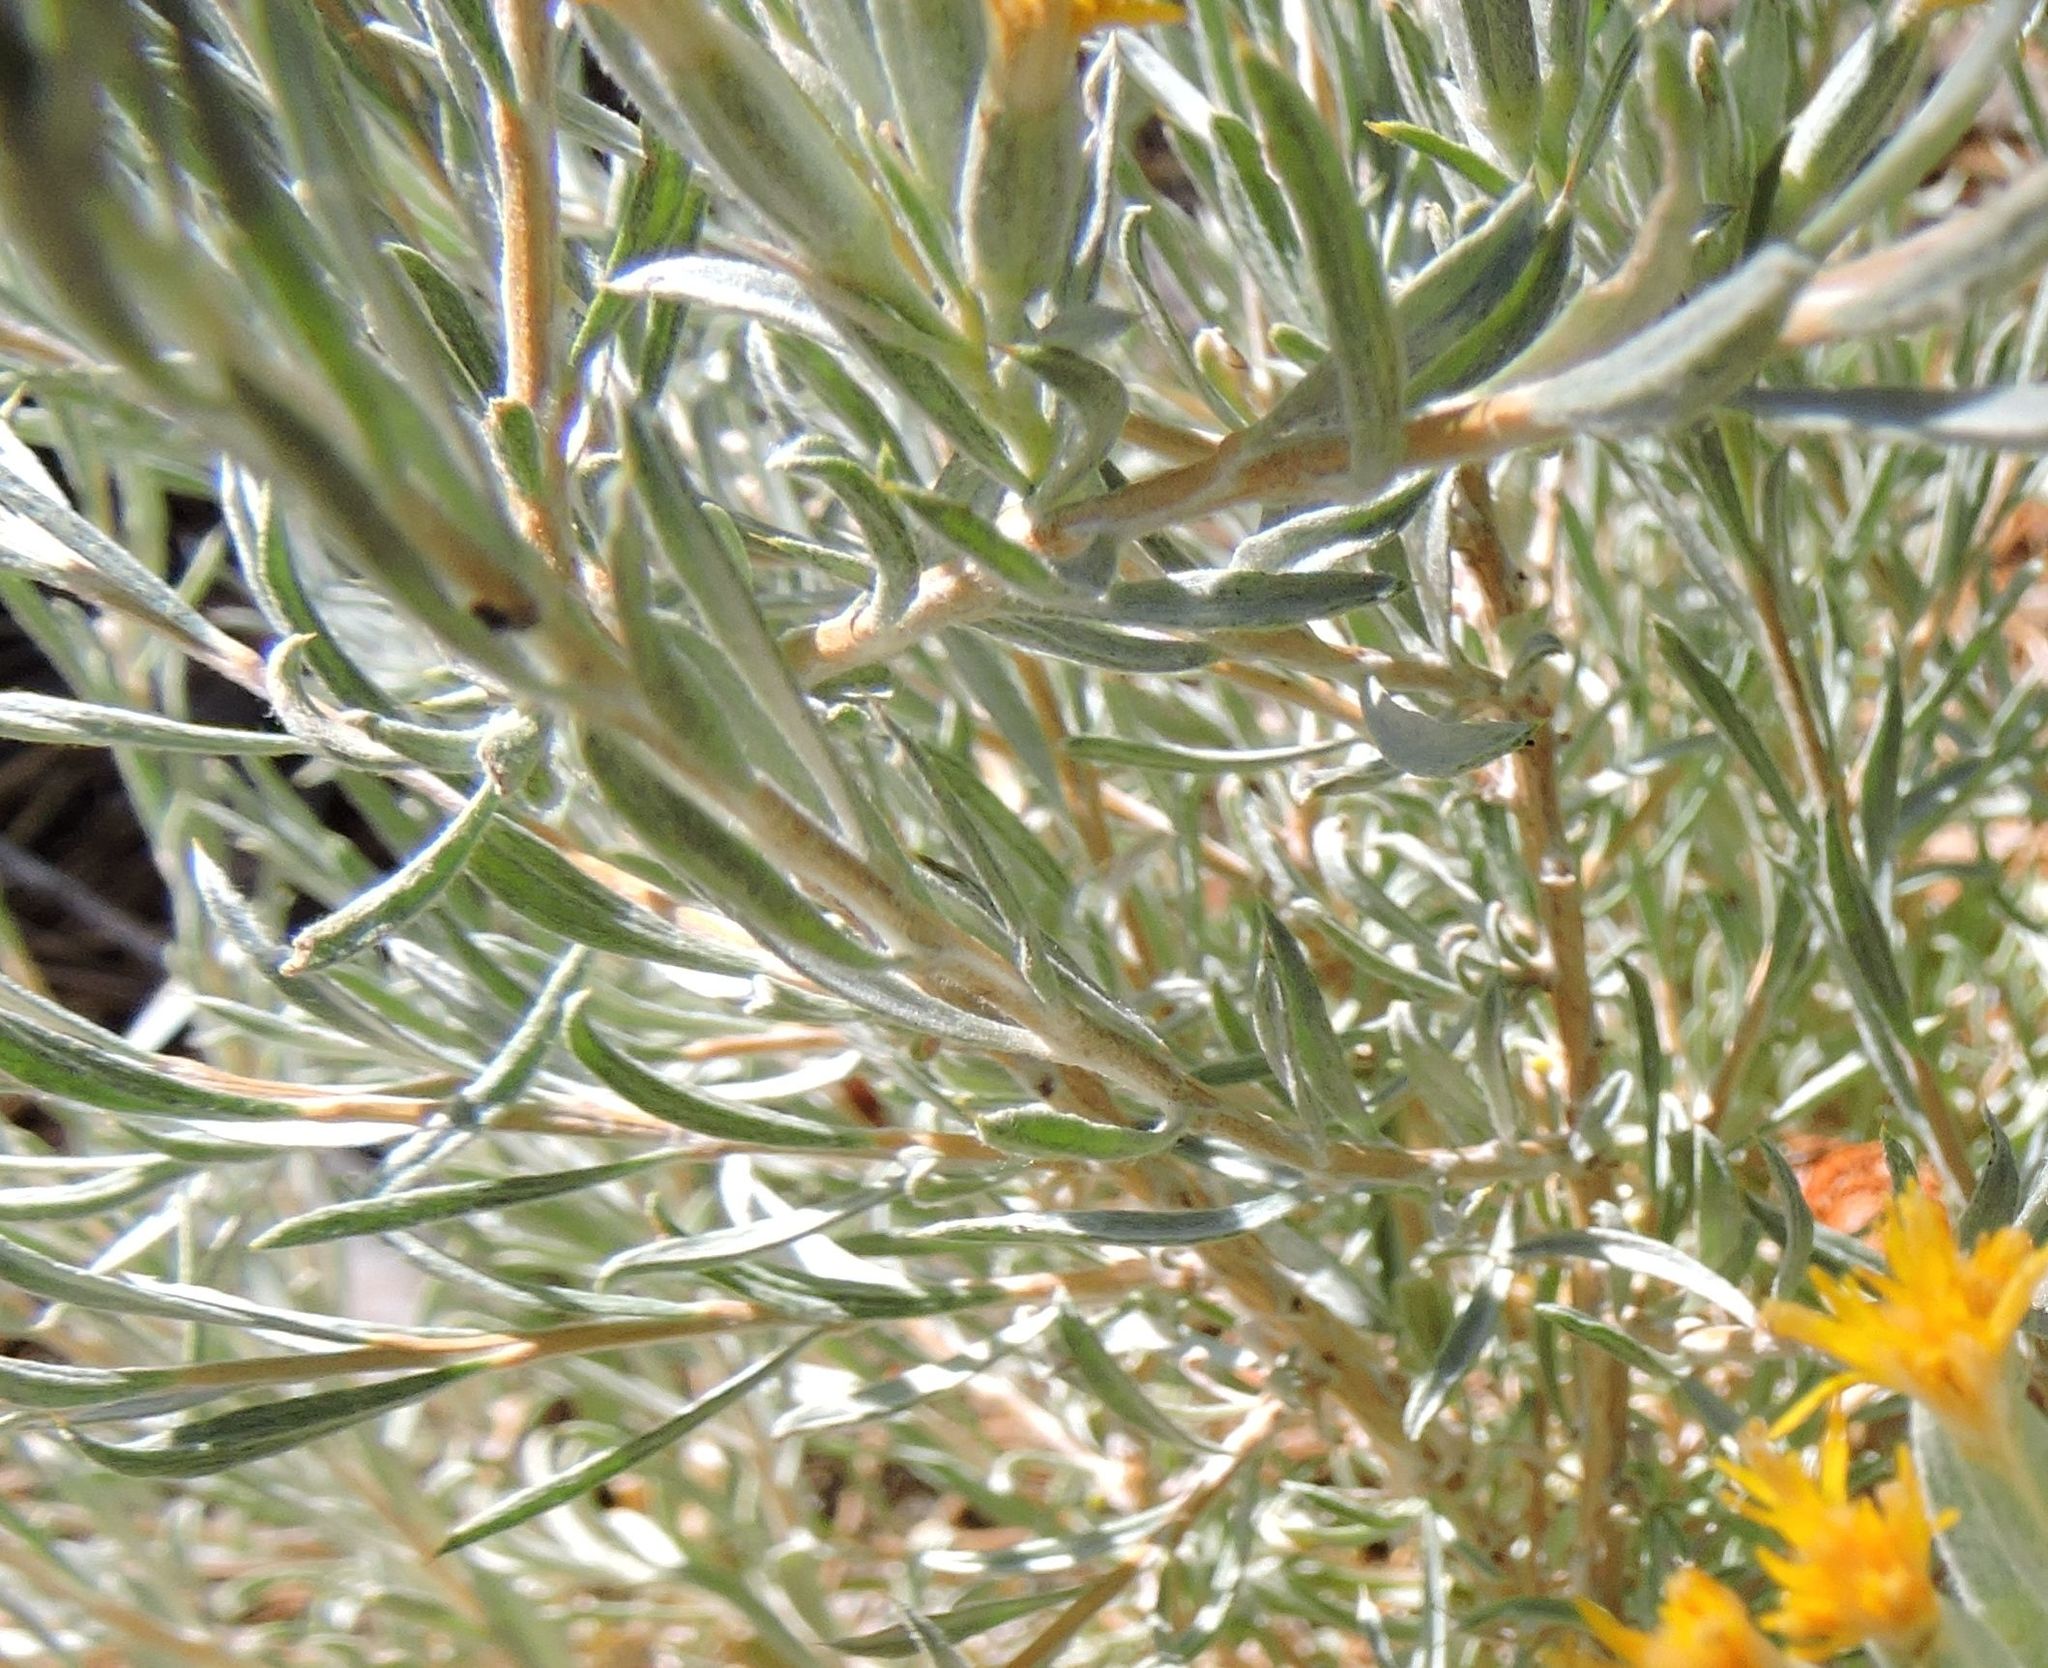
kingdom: Plantae
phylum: Tracheophyta
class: Magnoliopsida
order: Asterales
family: Asteraceae
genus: Tetradymia
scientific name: Tetradymia canescens
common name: Spineless horsebrush
